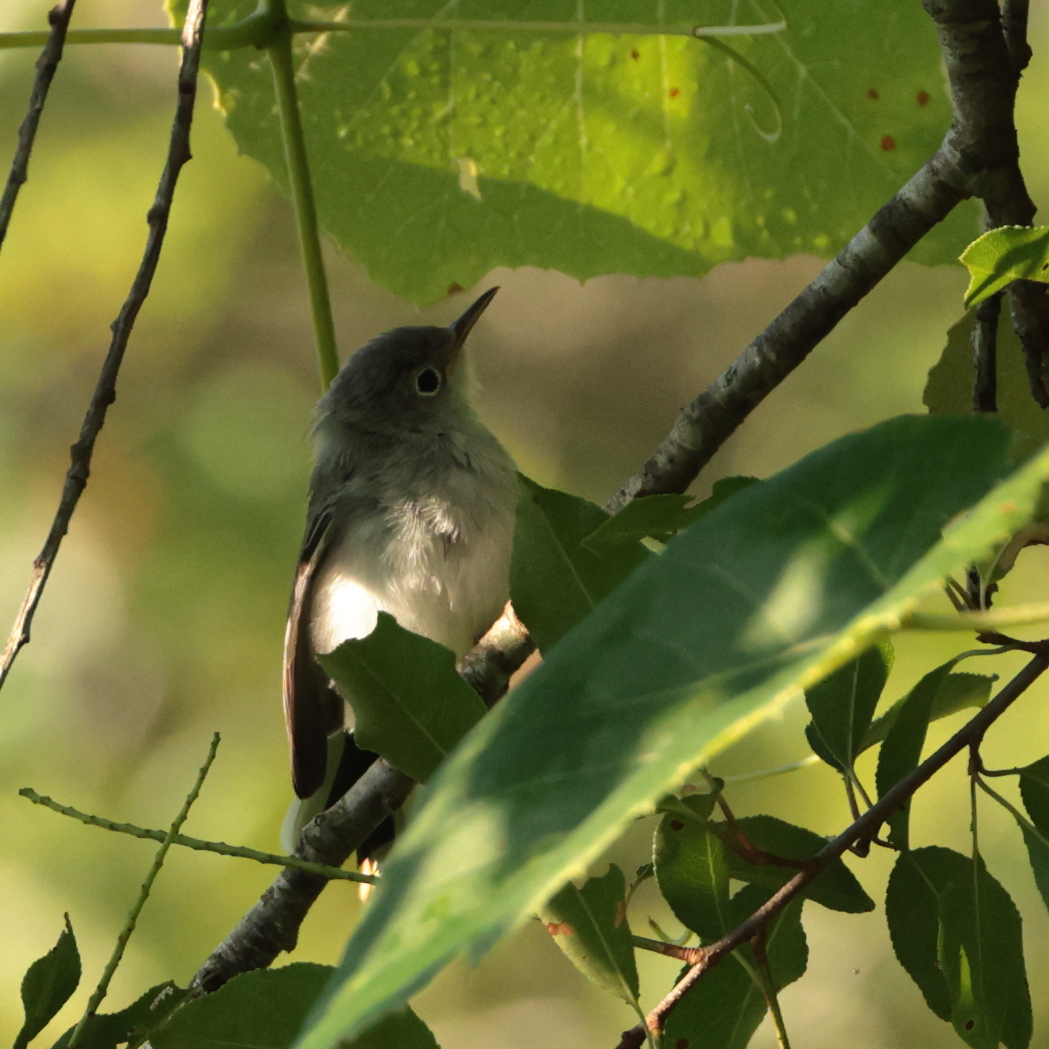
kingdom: Animalia
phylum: Chordata
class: Aves
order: Passeriformes
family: Polioptilidae
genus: Polioptila
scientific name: Polioptila caerulea
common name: Blue-gray gnatcatcher
